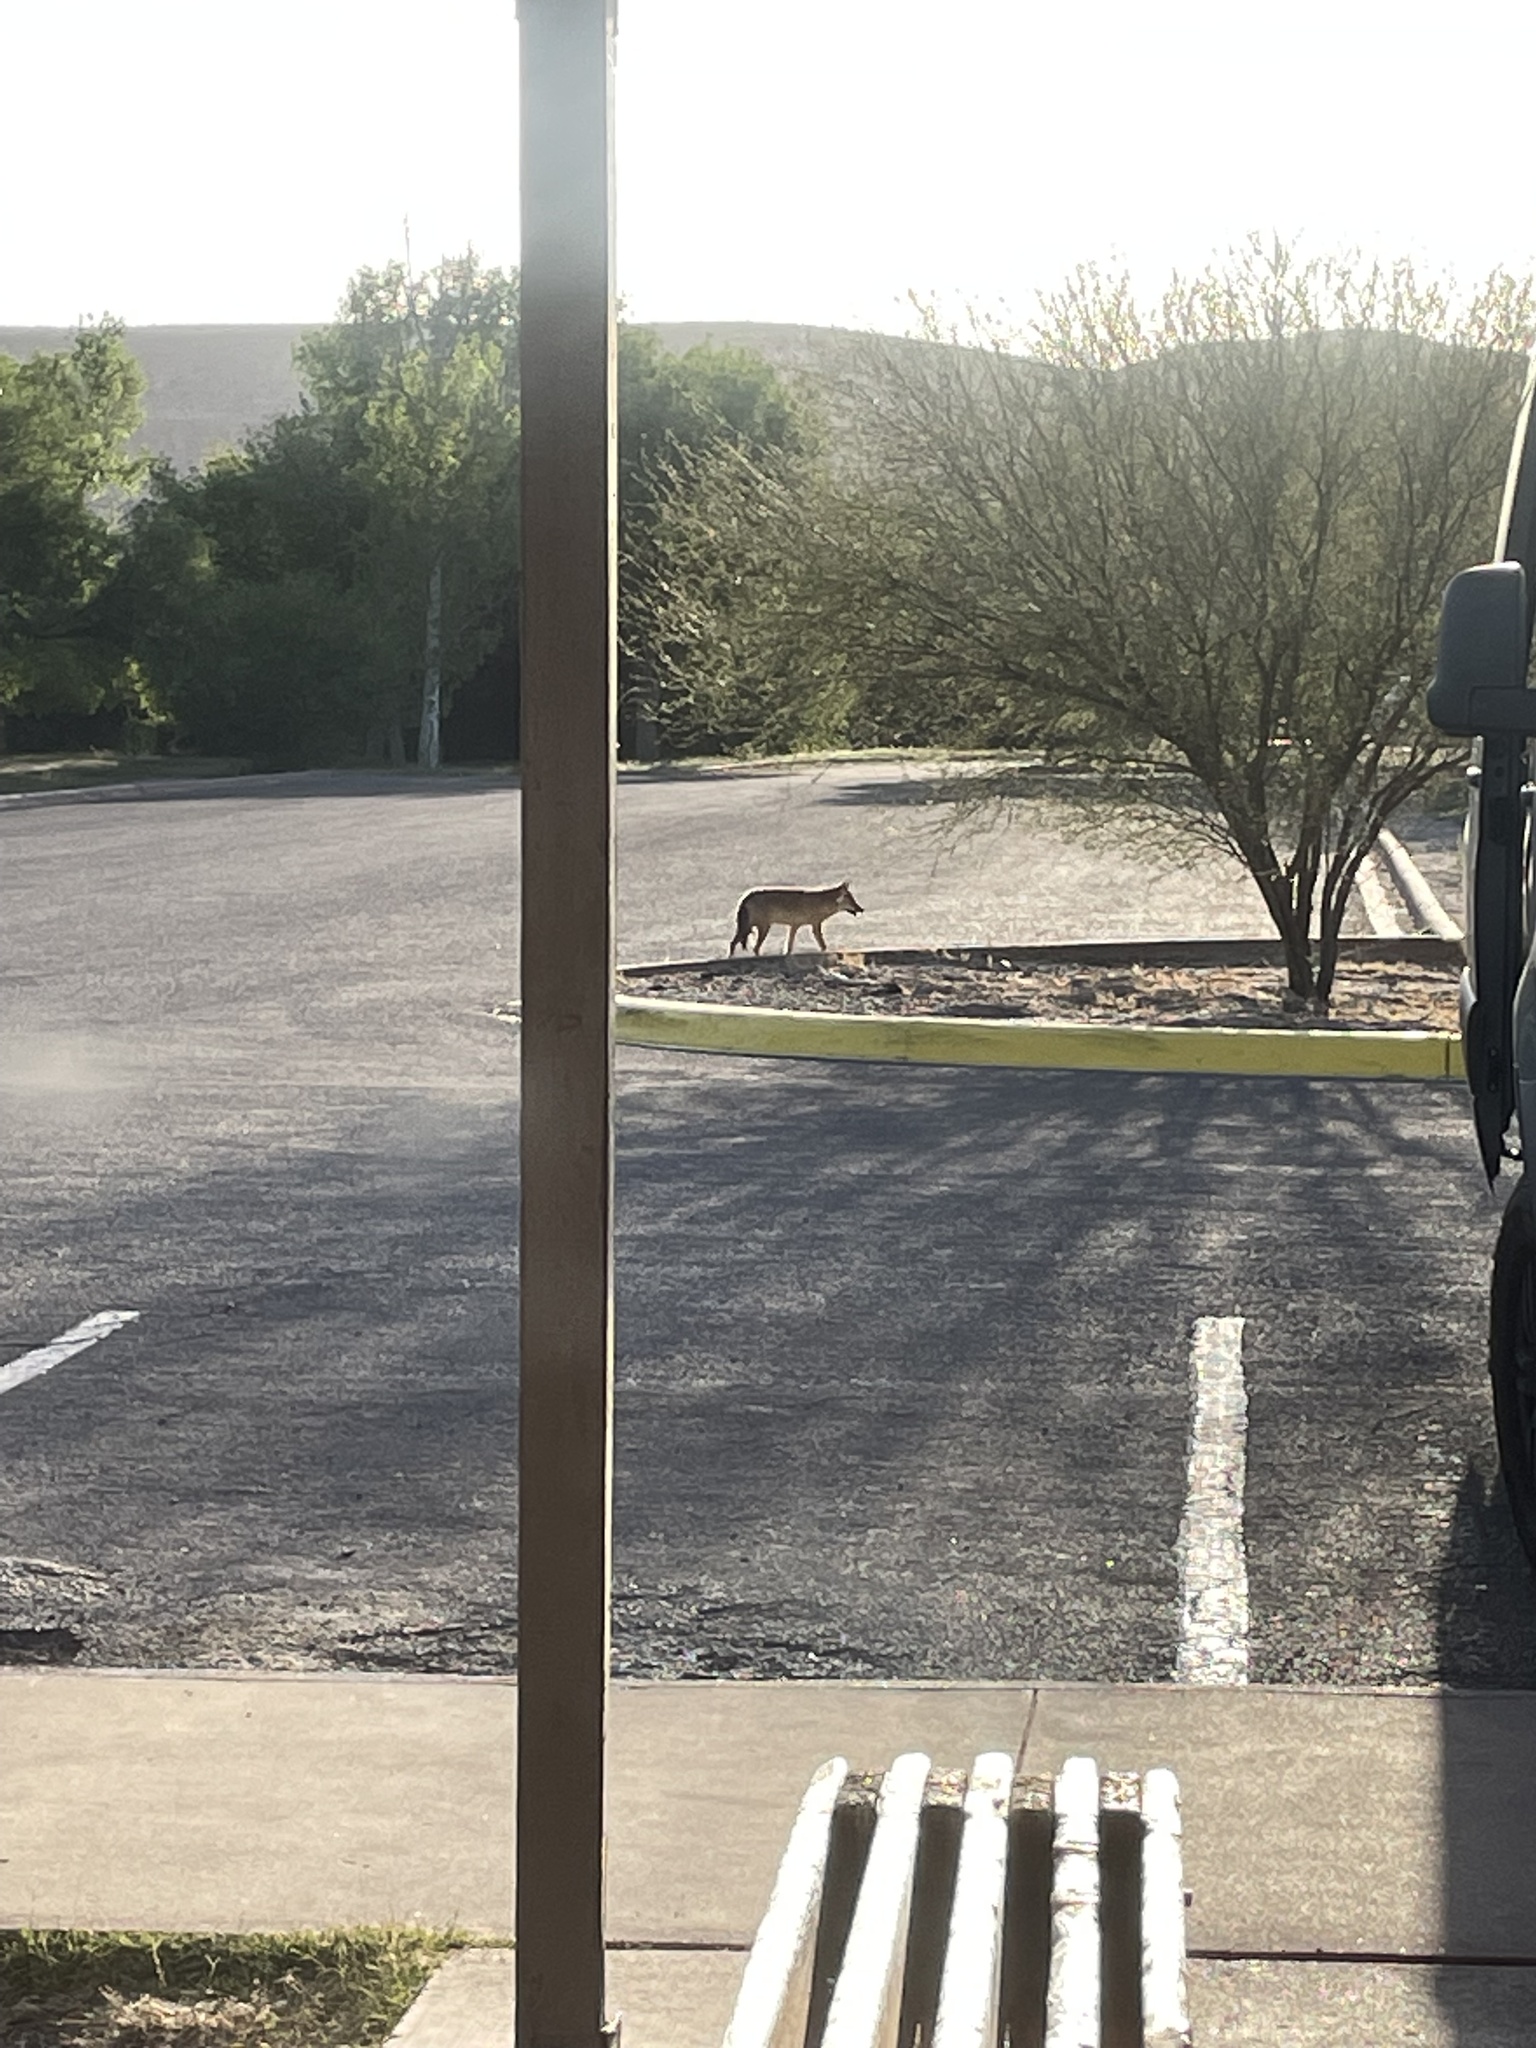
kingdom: Animalia
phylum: Chordata
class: Mammalia
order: Carnivora
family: Canidae
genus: Canis
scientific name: Canis latrans
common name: Coyote
